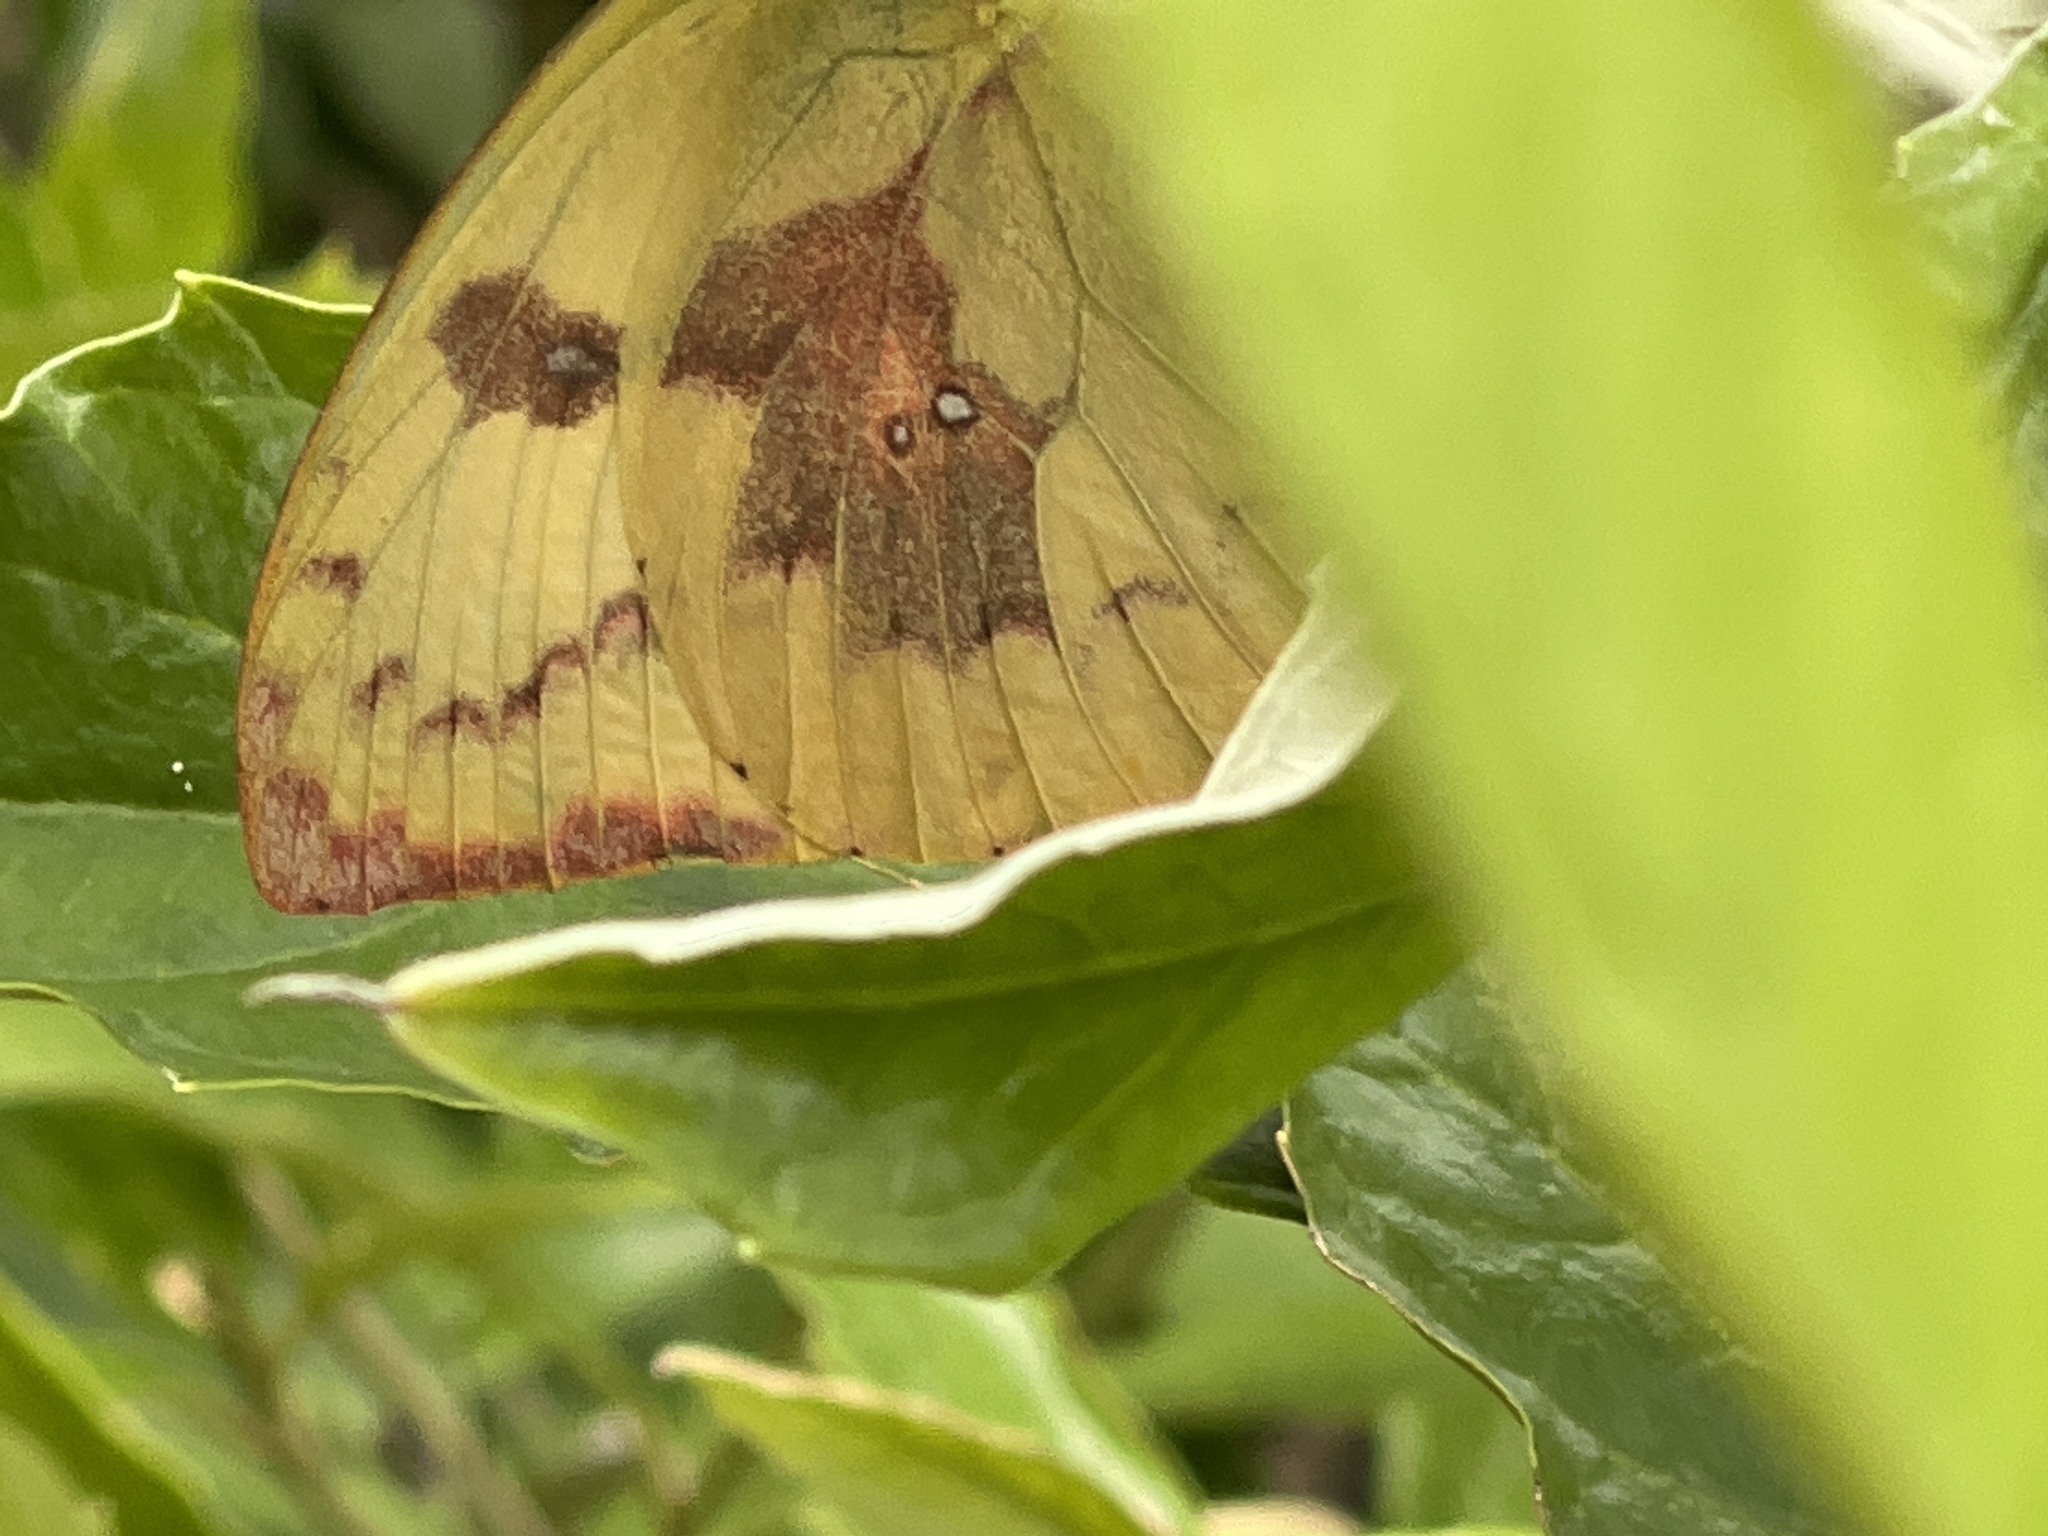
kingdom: Animalia
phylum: Arthropoda
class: Insecta
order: Lepidoptera
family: Pieridae
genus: Catopsilia
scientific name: Catopsilia pomona
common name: Common emigrant
